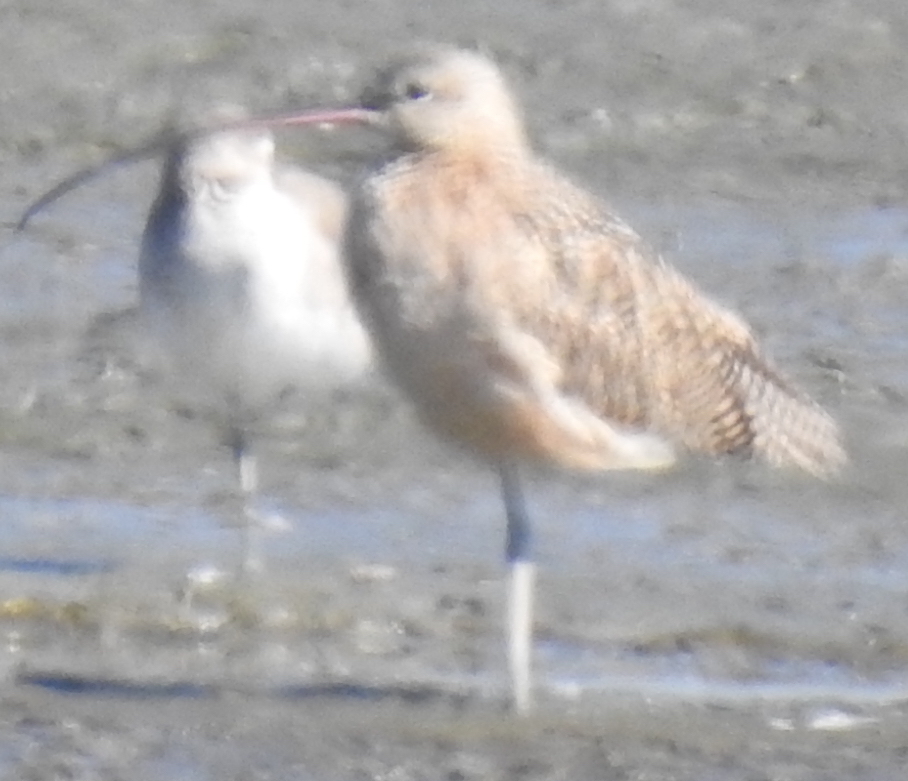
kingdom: Animalia
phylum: Chordata
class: Aves
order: Charadriiformes
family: Scolopacidae
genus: Numenius
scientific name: Numenius americanus
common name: Long-billed curlew
